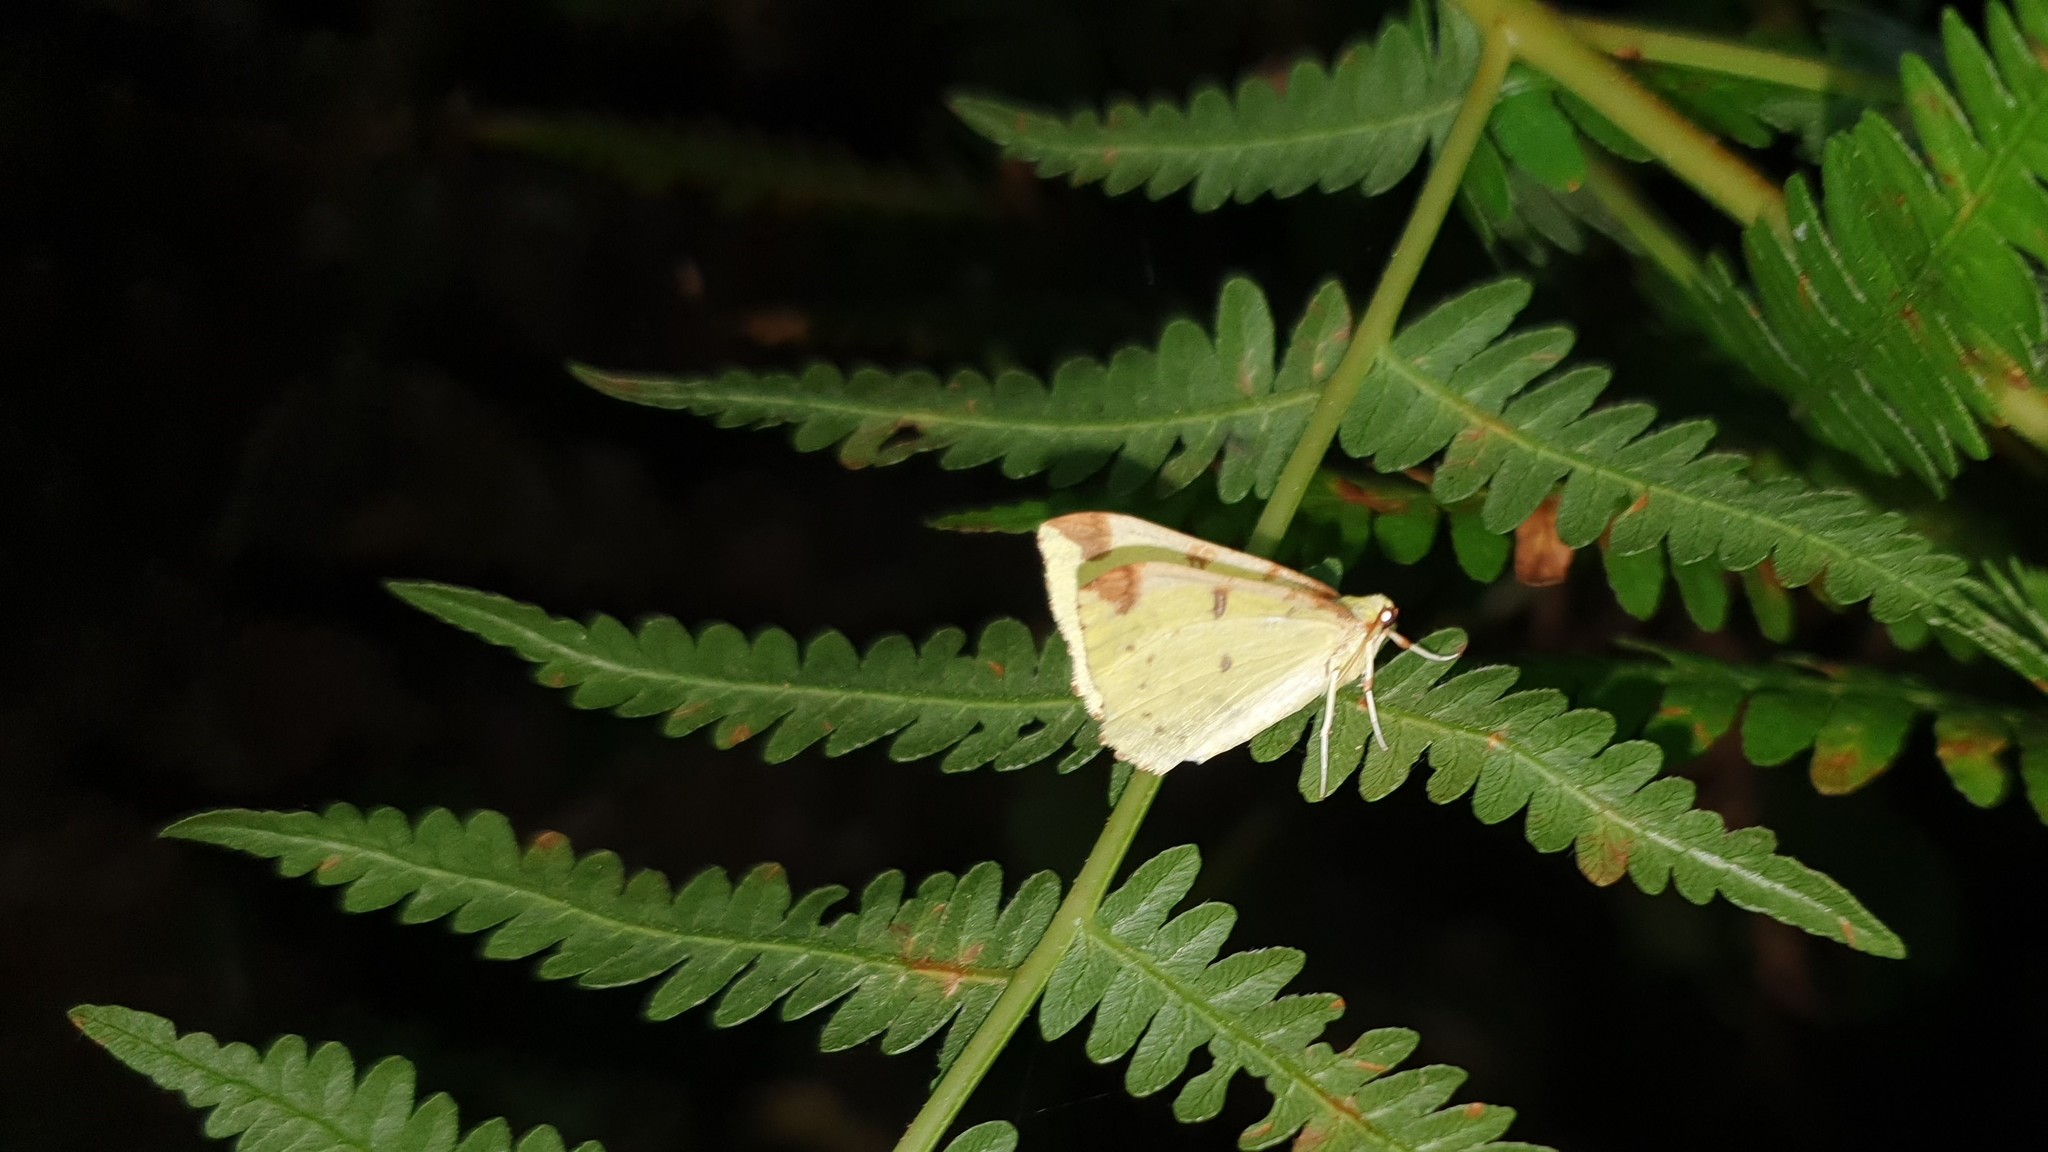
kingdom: Animalia
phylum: Arthropoda
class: Insecta
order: Lepidoptera
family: Geometridae
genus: Opisthograptis
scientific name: Opisthograptis luteolata
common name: Brimstone moth
